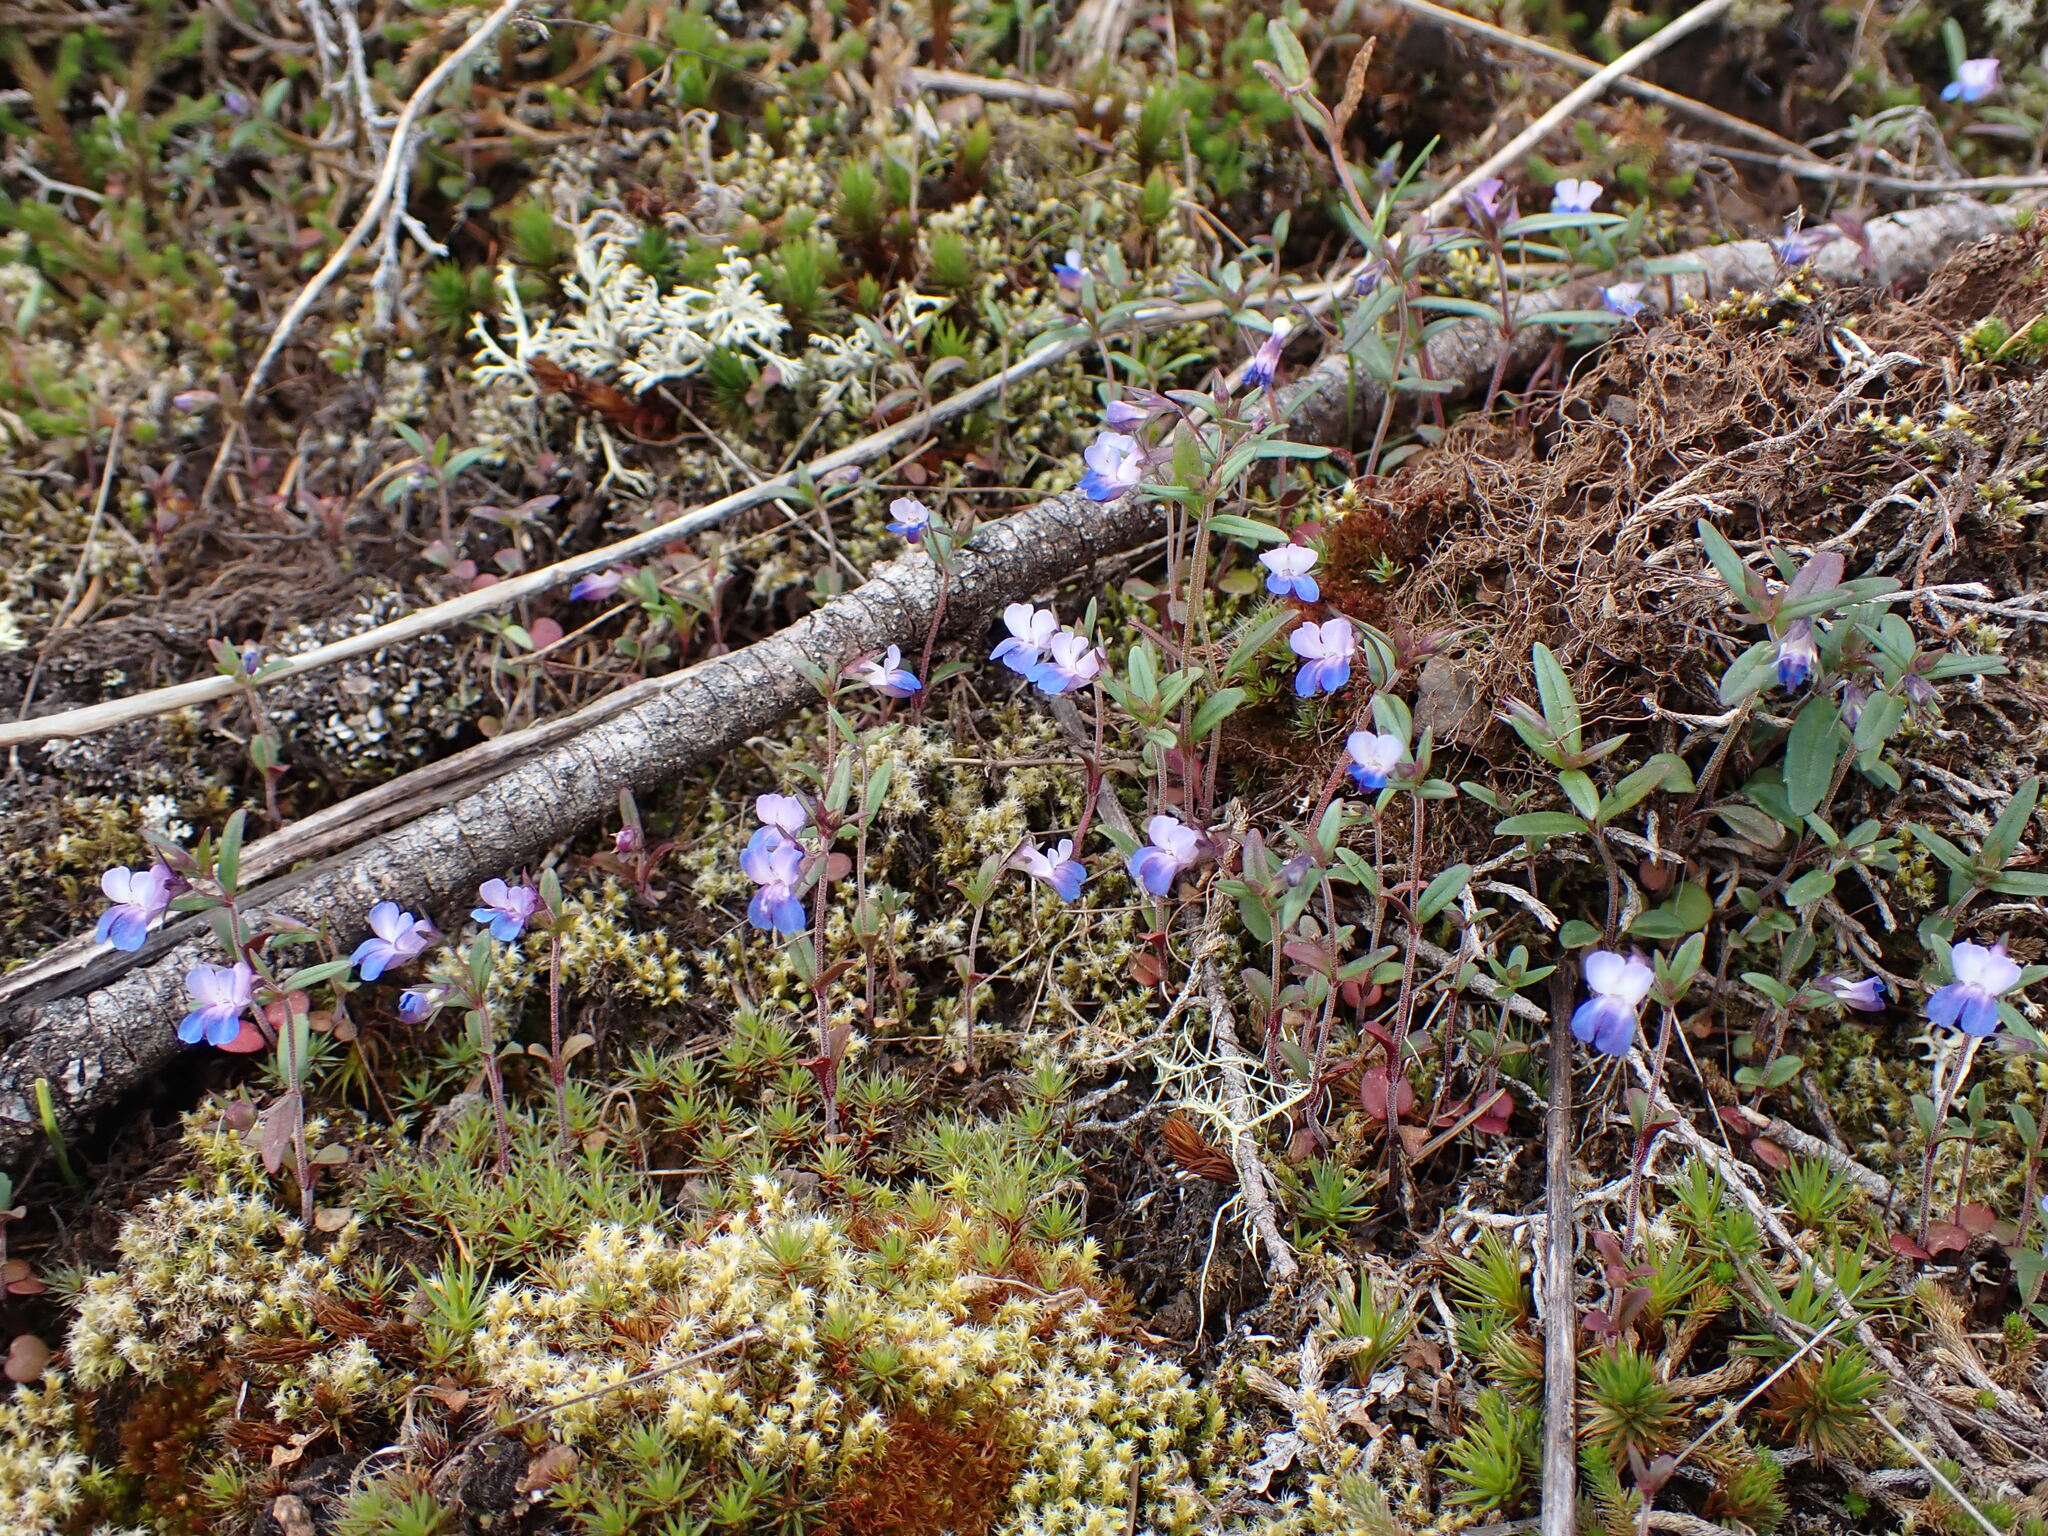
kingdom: Plantae
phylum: Tracheophyta
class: Magnoliopsida
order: Lamiales
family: Plantaginaceae
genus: Collinsia
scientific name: Collinsia parviflora
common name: Blue-lips
